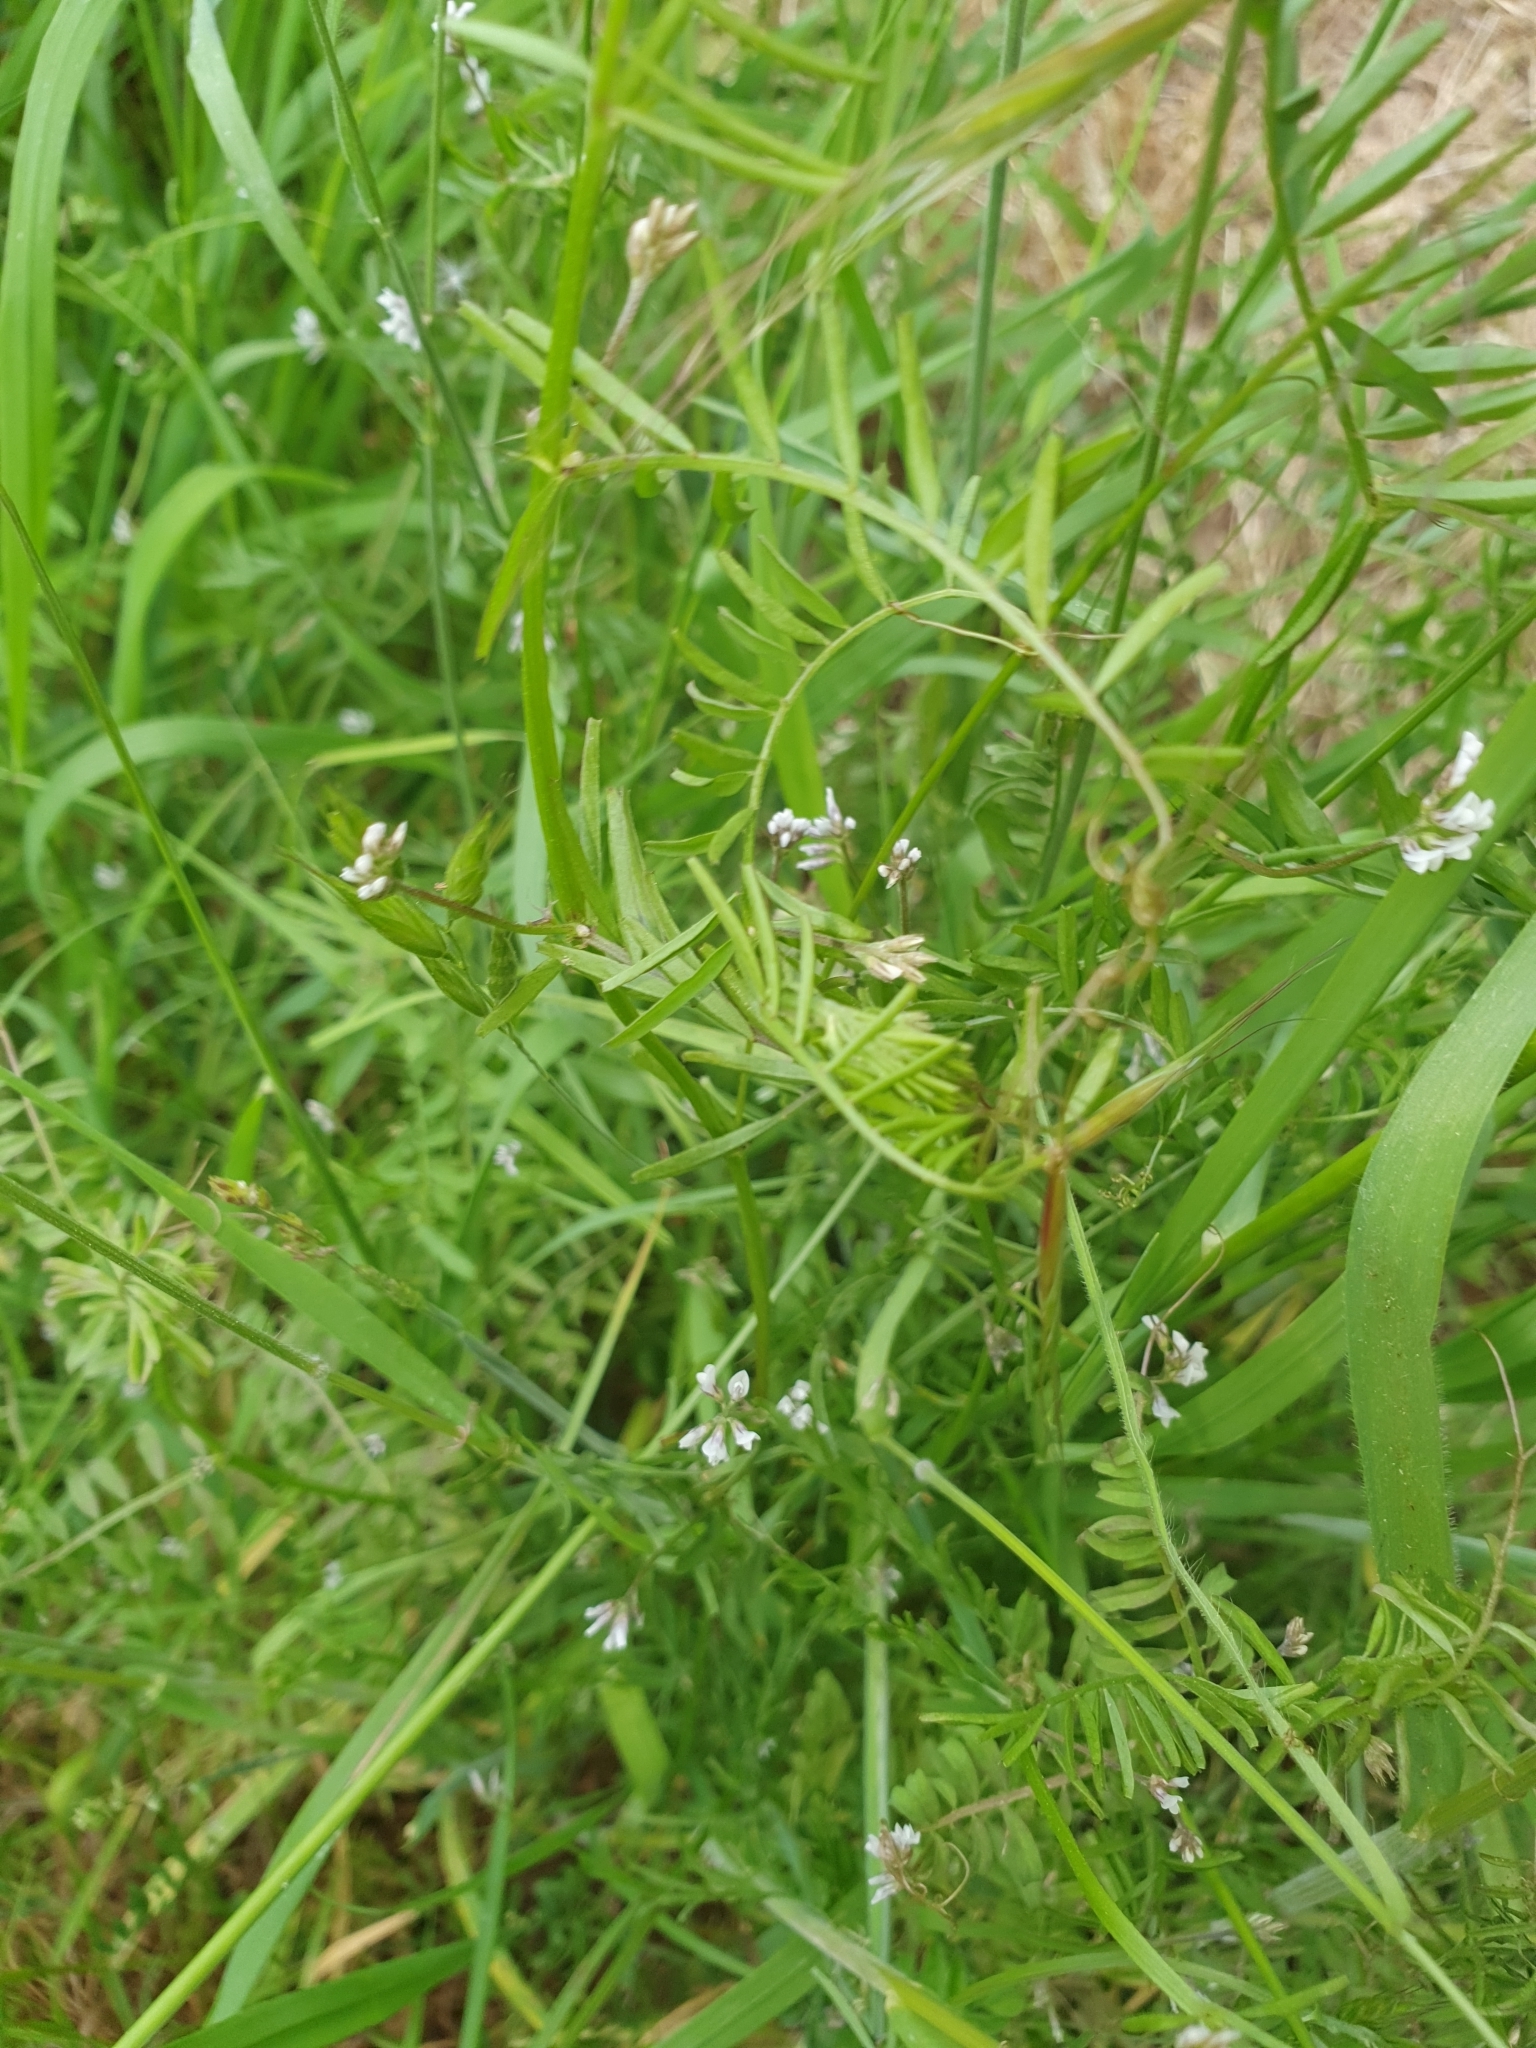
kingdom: Plantae
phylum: Tracheophyta
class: Magnoliopsida
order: Fabales
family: Fabaceae
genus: Vicia
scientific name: Vicia hirsuta
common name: Tiny vetch
